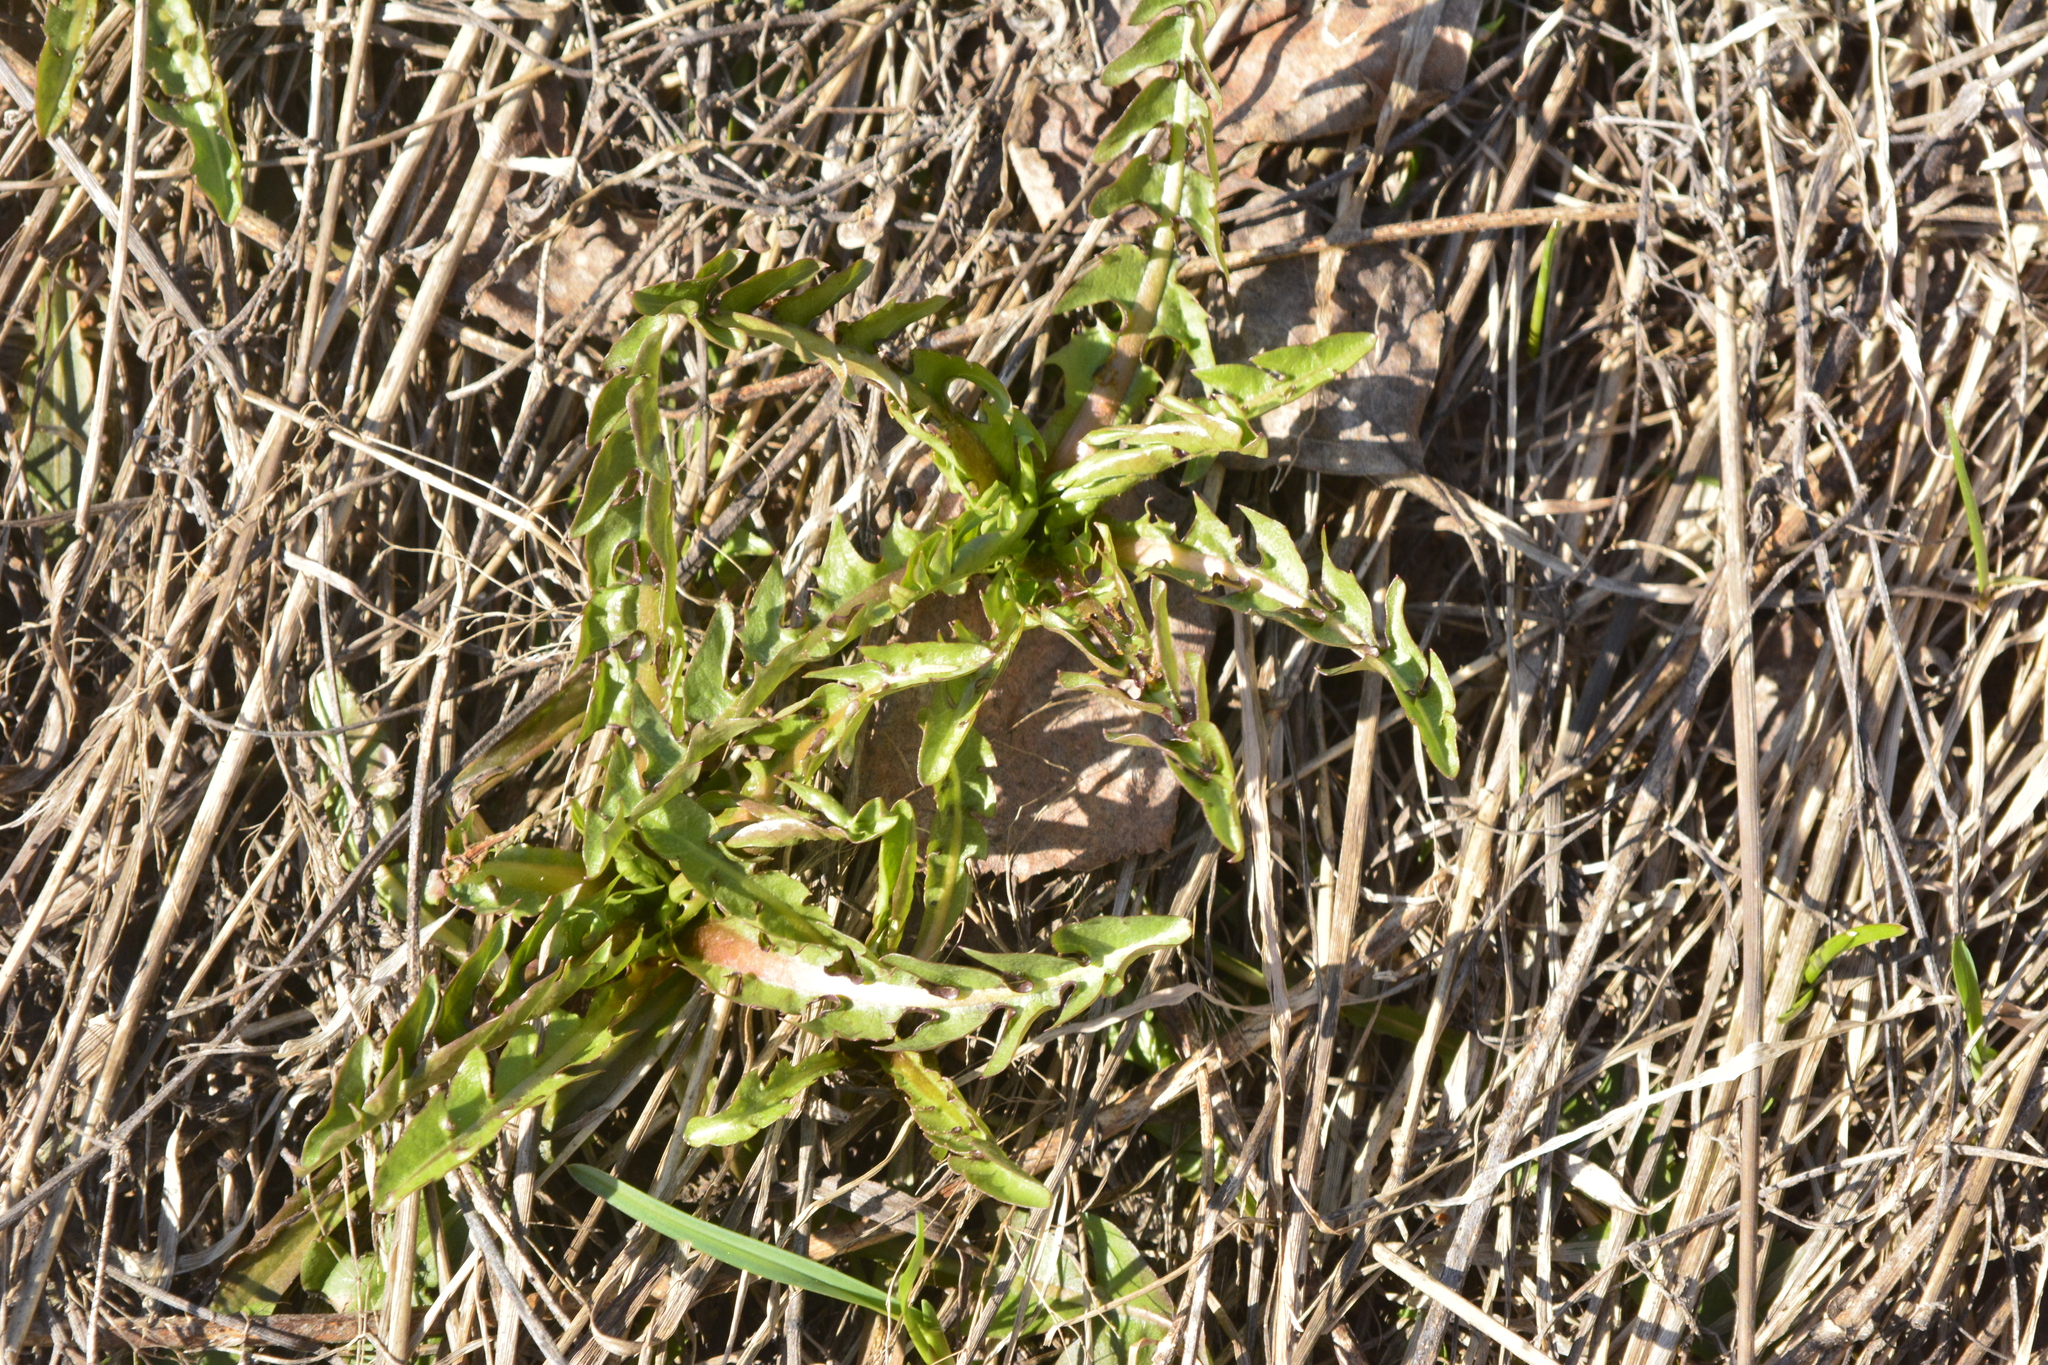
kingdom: Plantae
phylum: Tracheophyta
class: Magnoliopsida
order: Asterales
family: Asteraceae
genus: Taraxacum
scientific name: Taraxacum officinale
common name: Common dandelion
